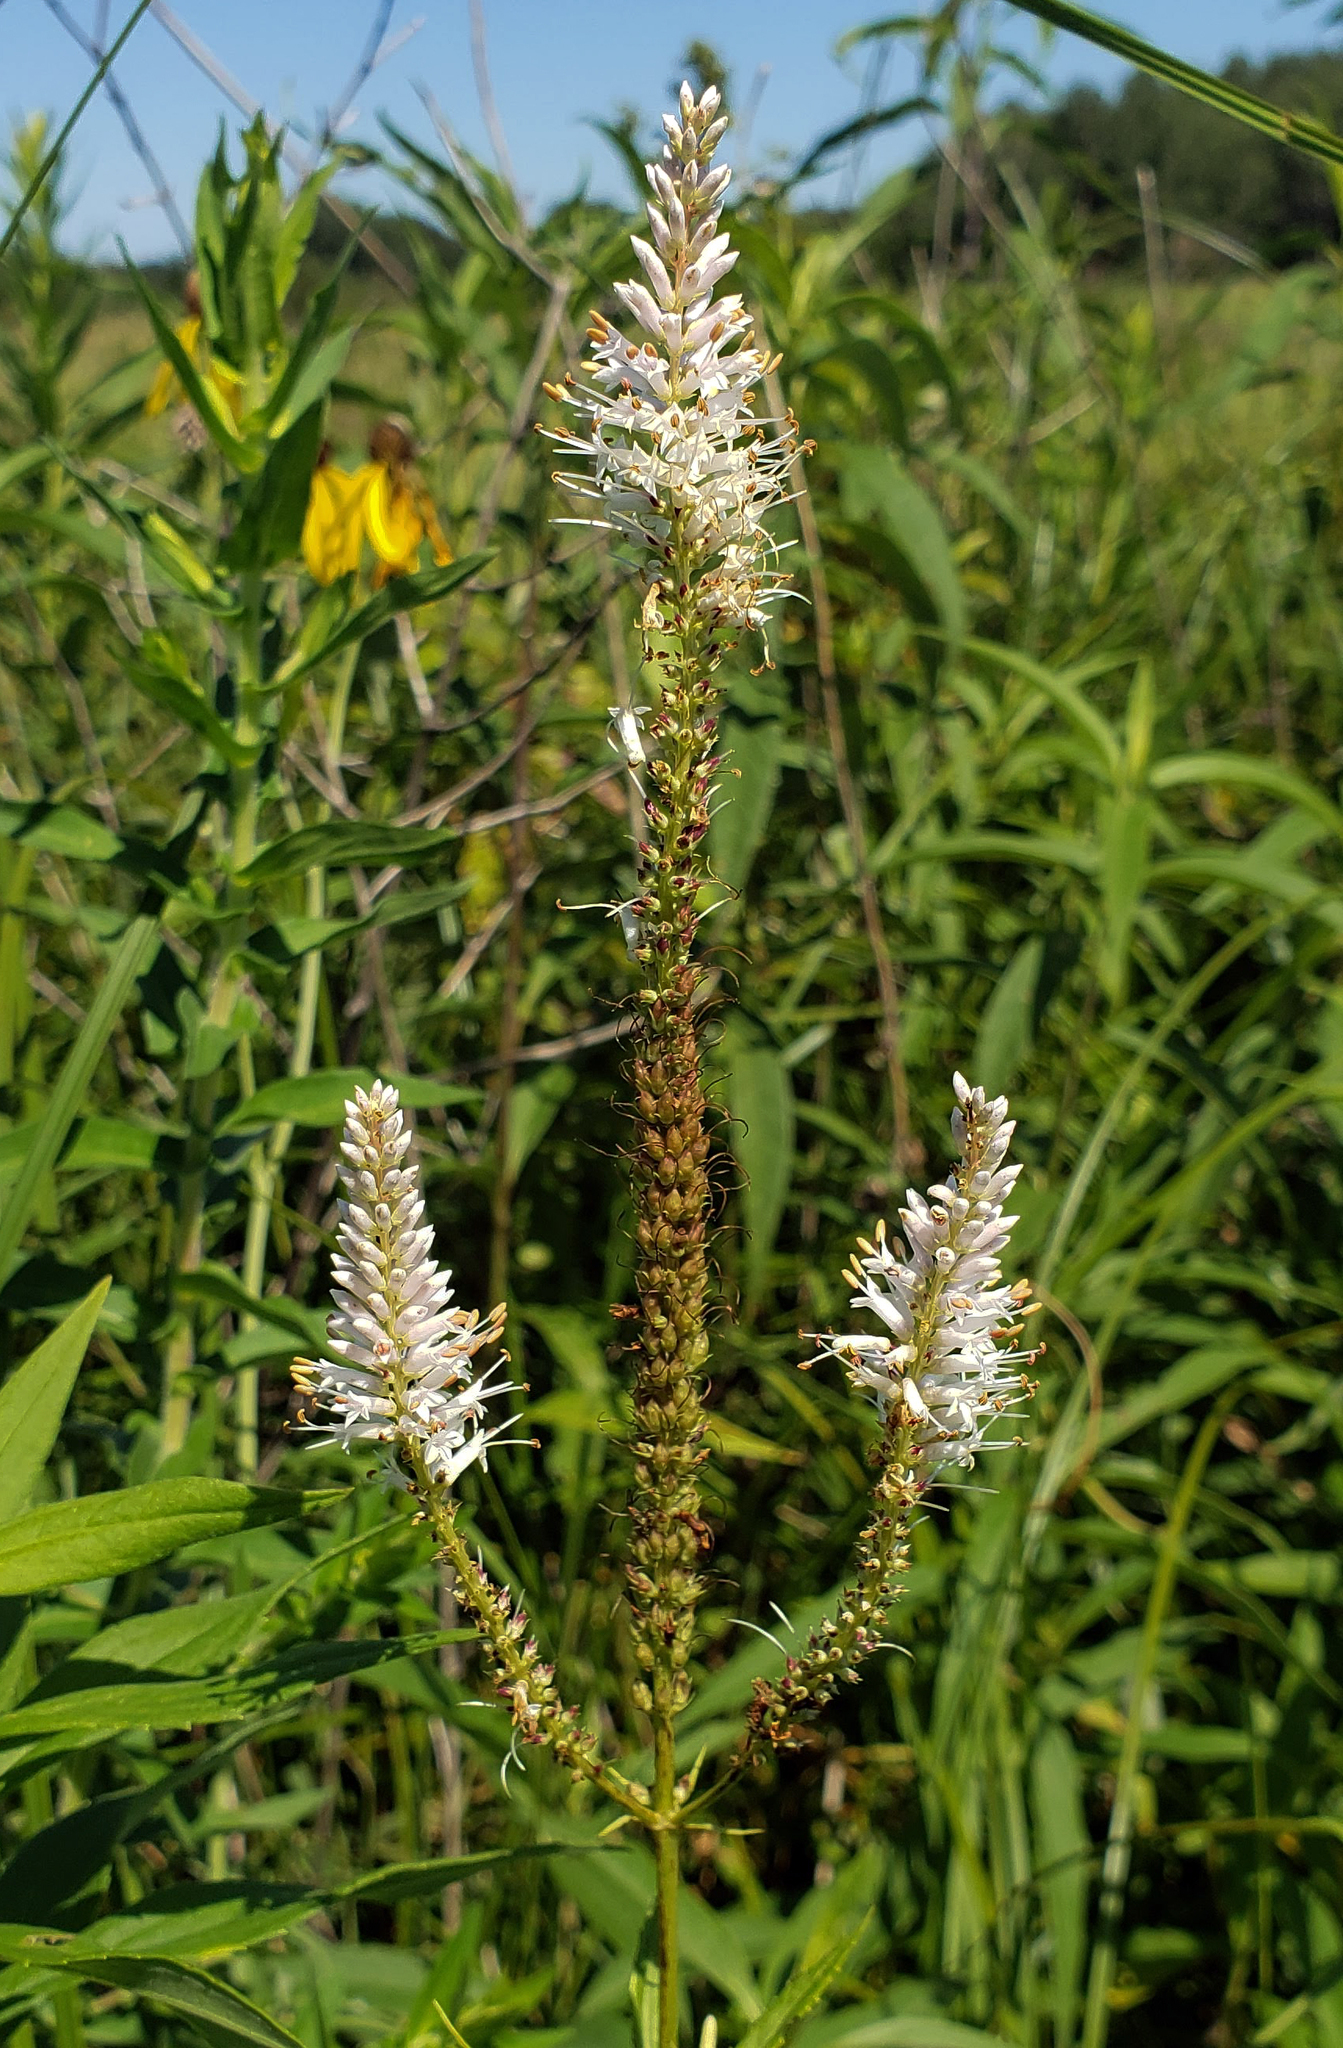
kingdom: Plantae
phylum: Tracheophyta
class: Magnoliopsida
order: Lamiales
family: Plantaginaceae
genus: Veronicastrum
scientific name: Veronicastrum virginicum
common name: Blackroot
